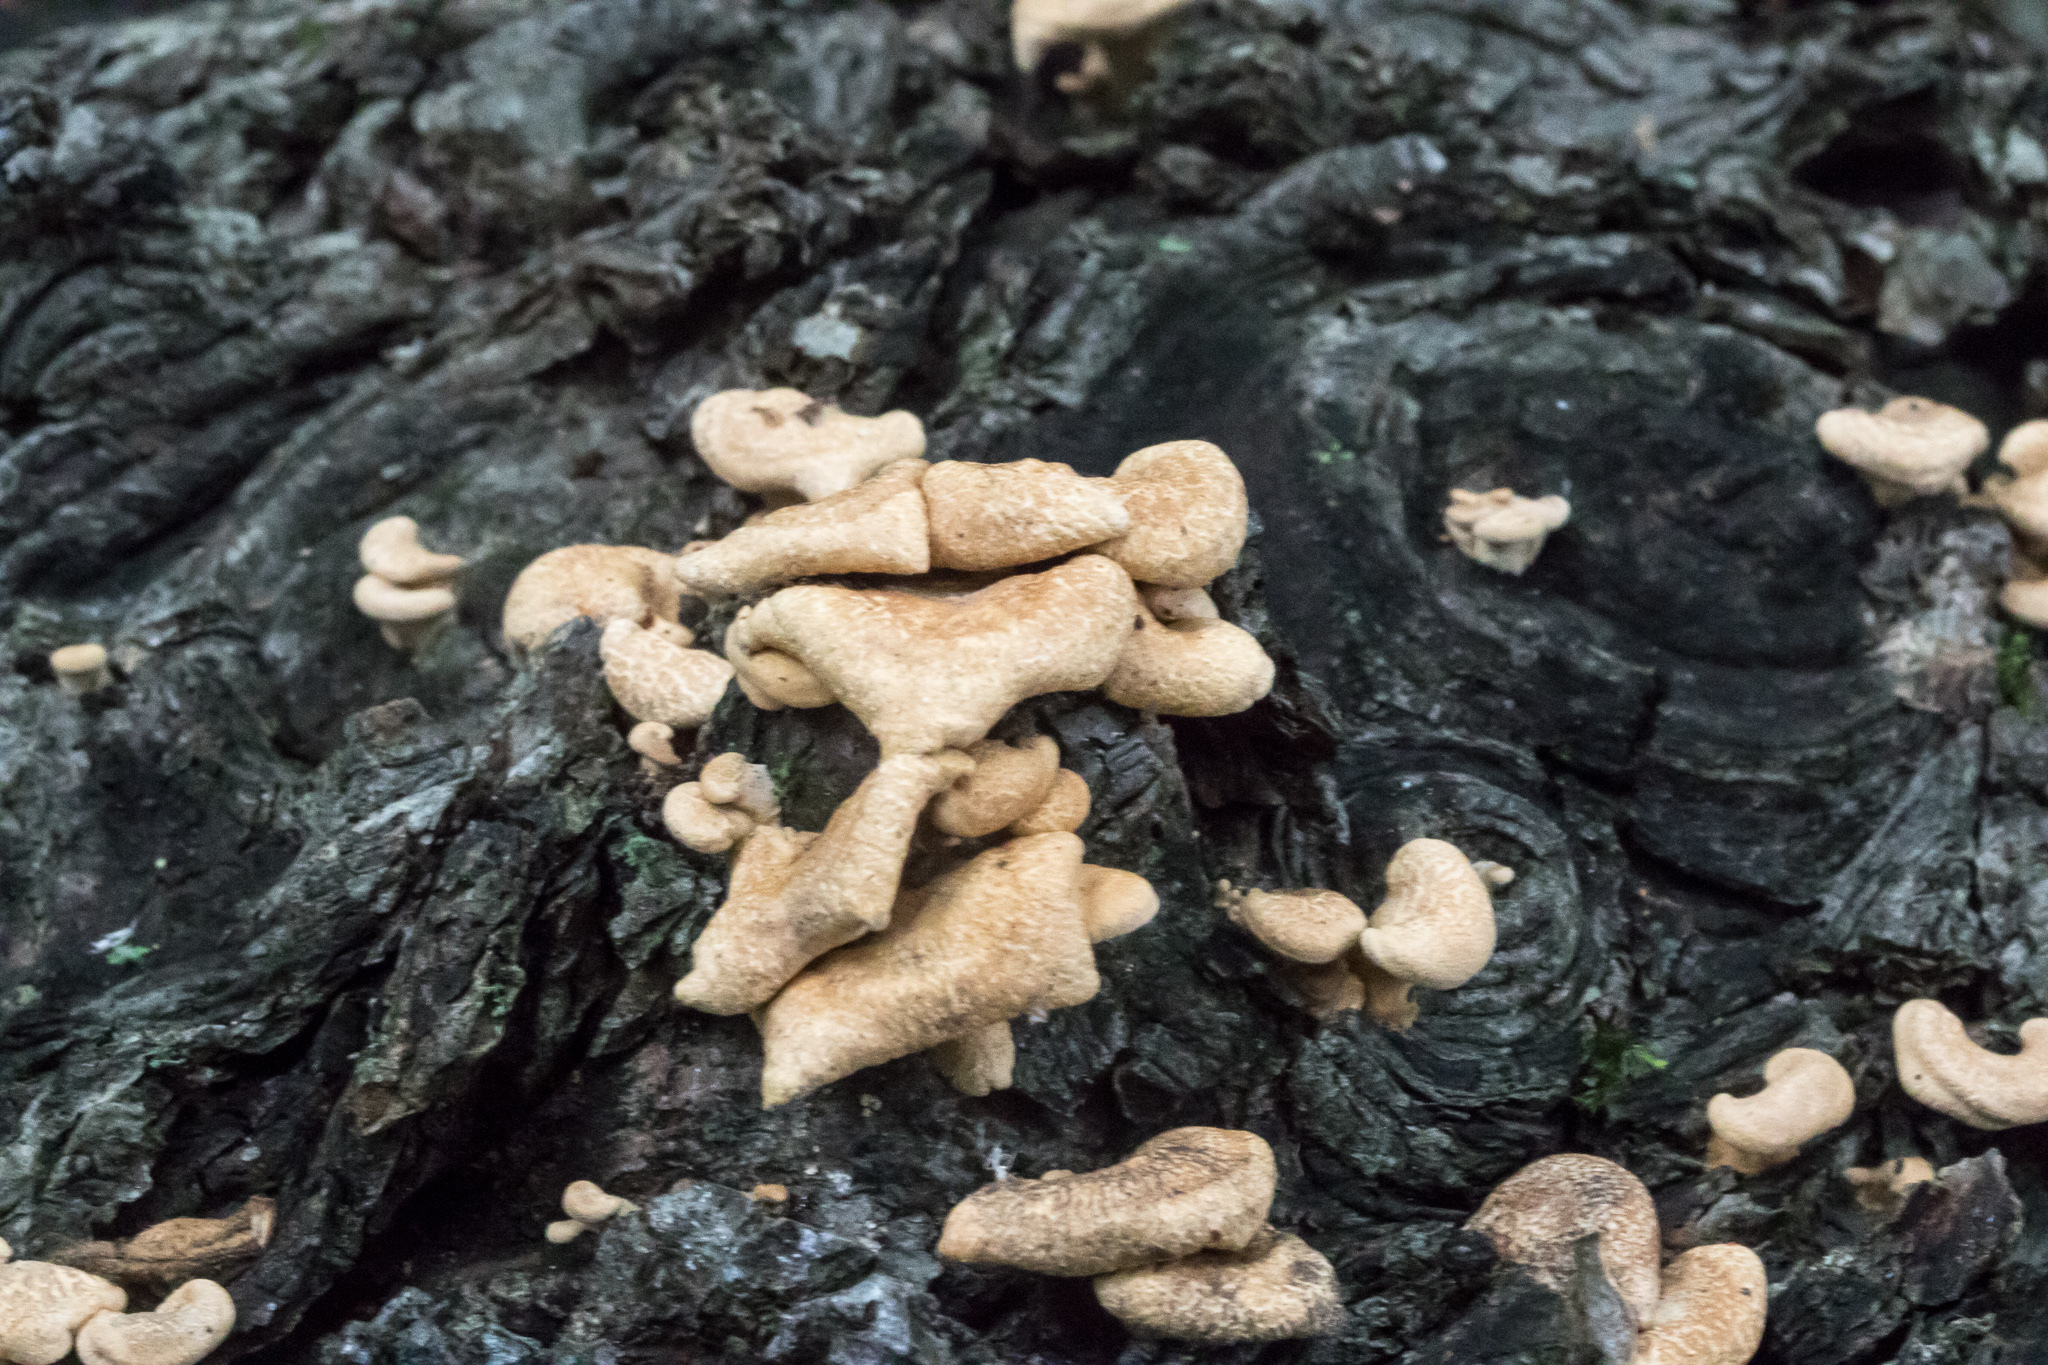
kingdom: Fungi
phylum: Basidiomycota
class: Agaricomycetes
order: Agaricales
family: Mycenaceae
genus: Panellus
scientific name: Panellus stipticus
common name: Bitter oysterling
